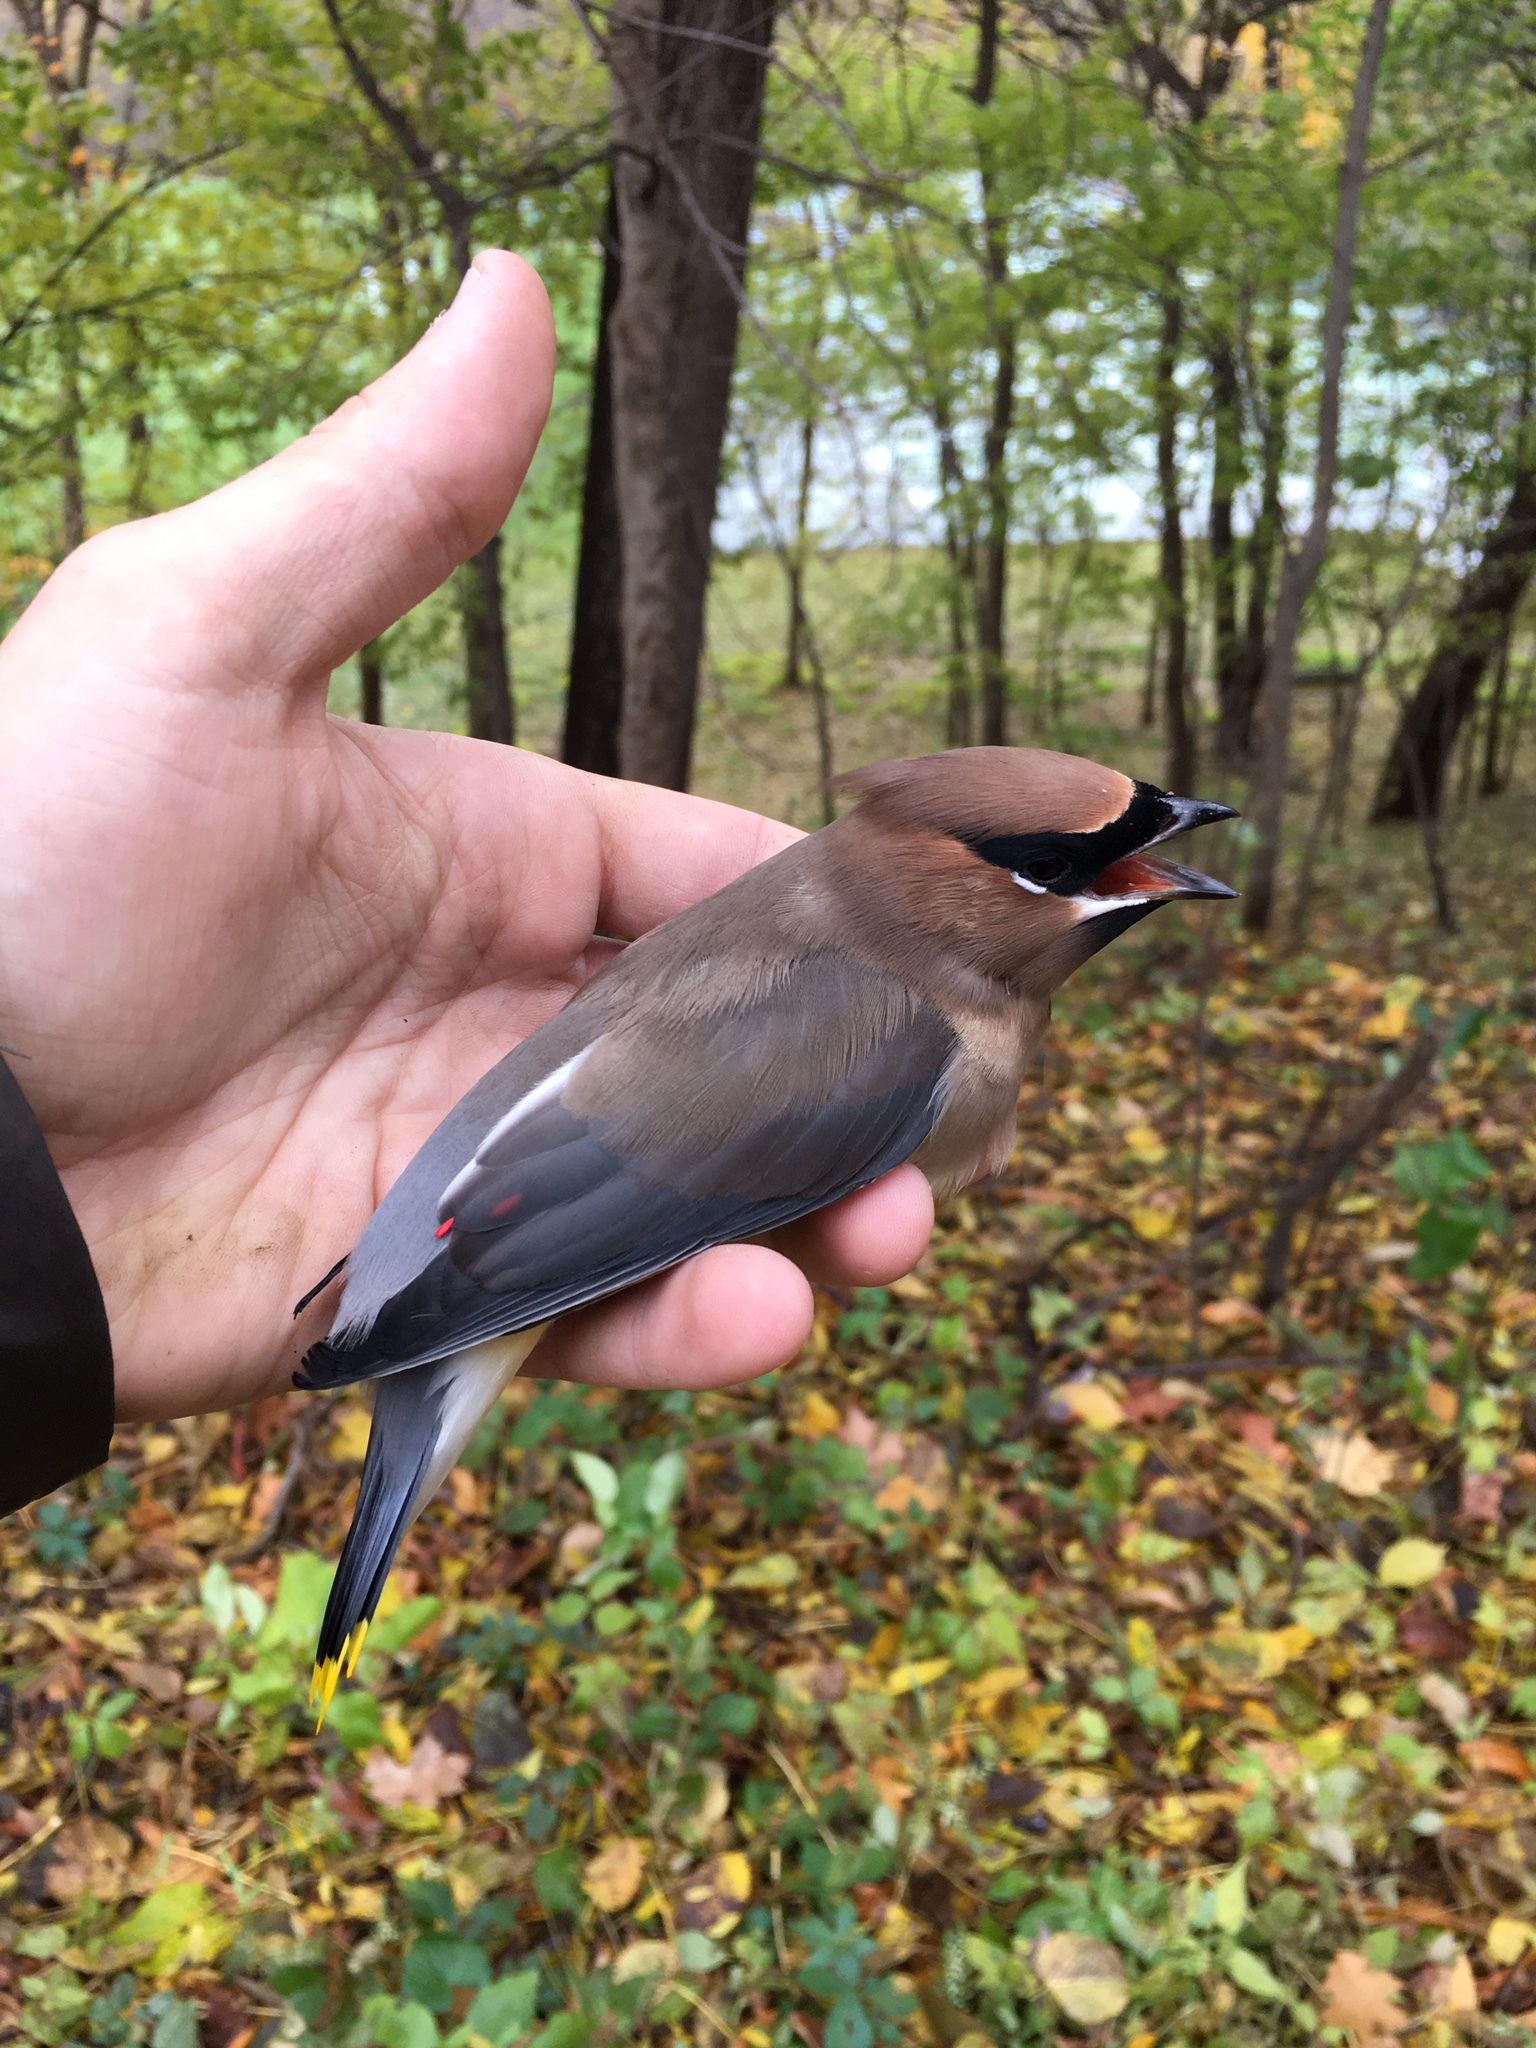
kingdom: Animalia
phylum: Chordata
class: Aves
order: Passeriformes
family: Bombycillidae
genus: Bombycilla
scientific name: Bombycilla cedrorum
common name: Cedar waxwing
